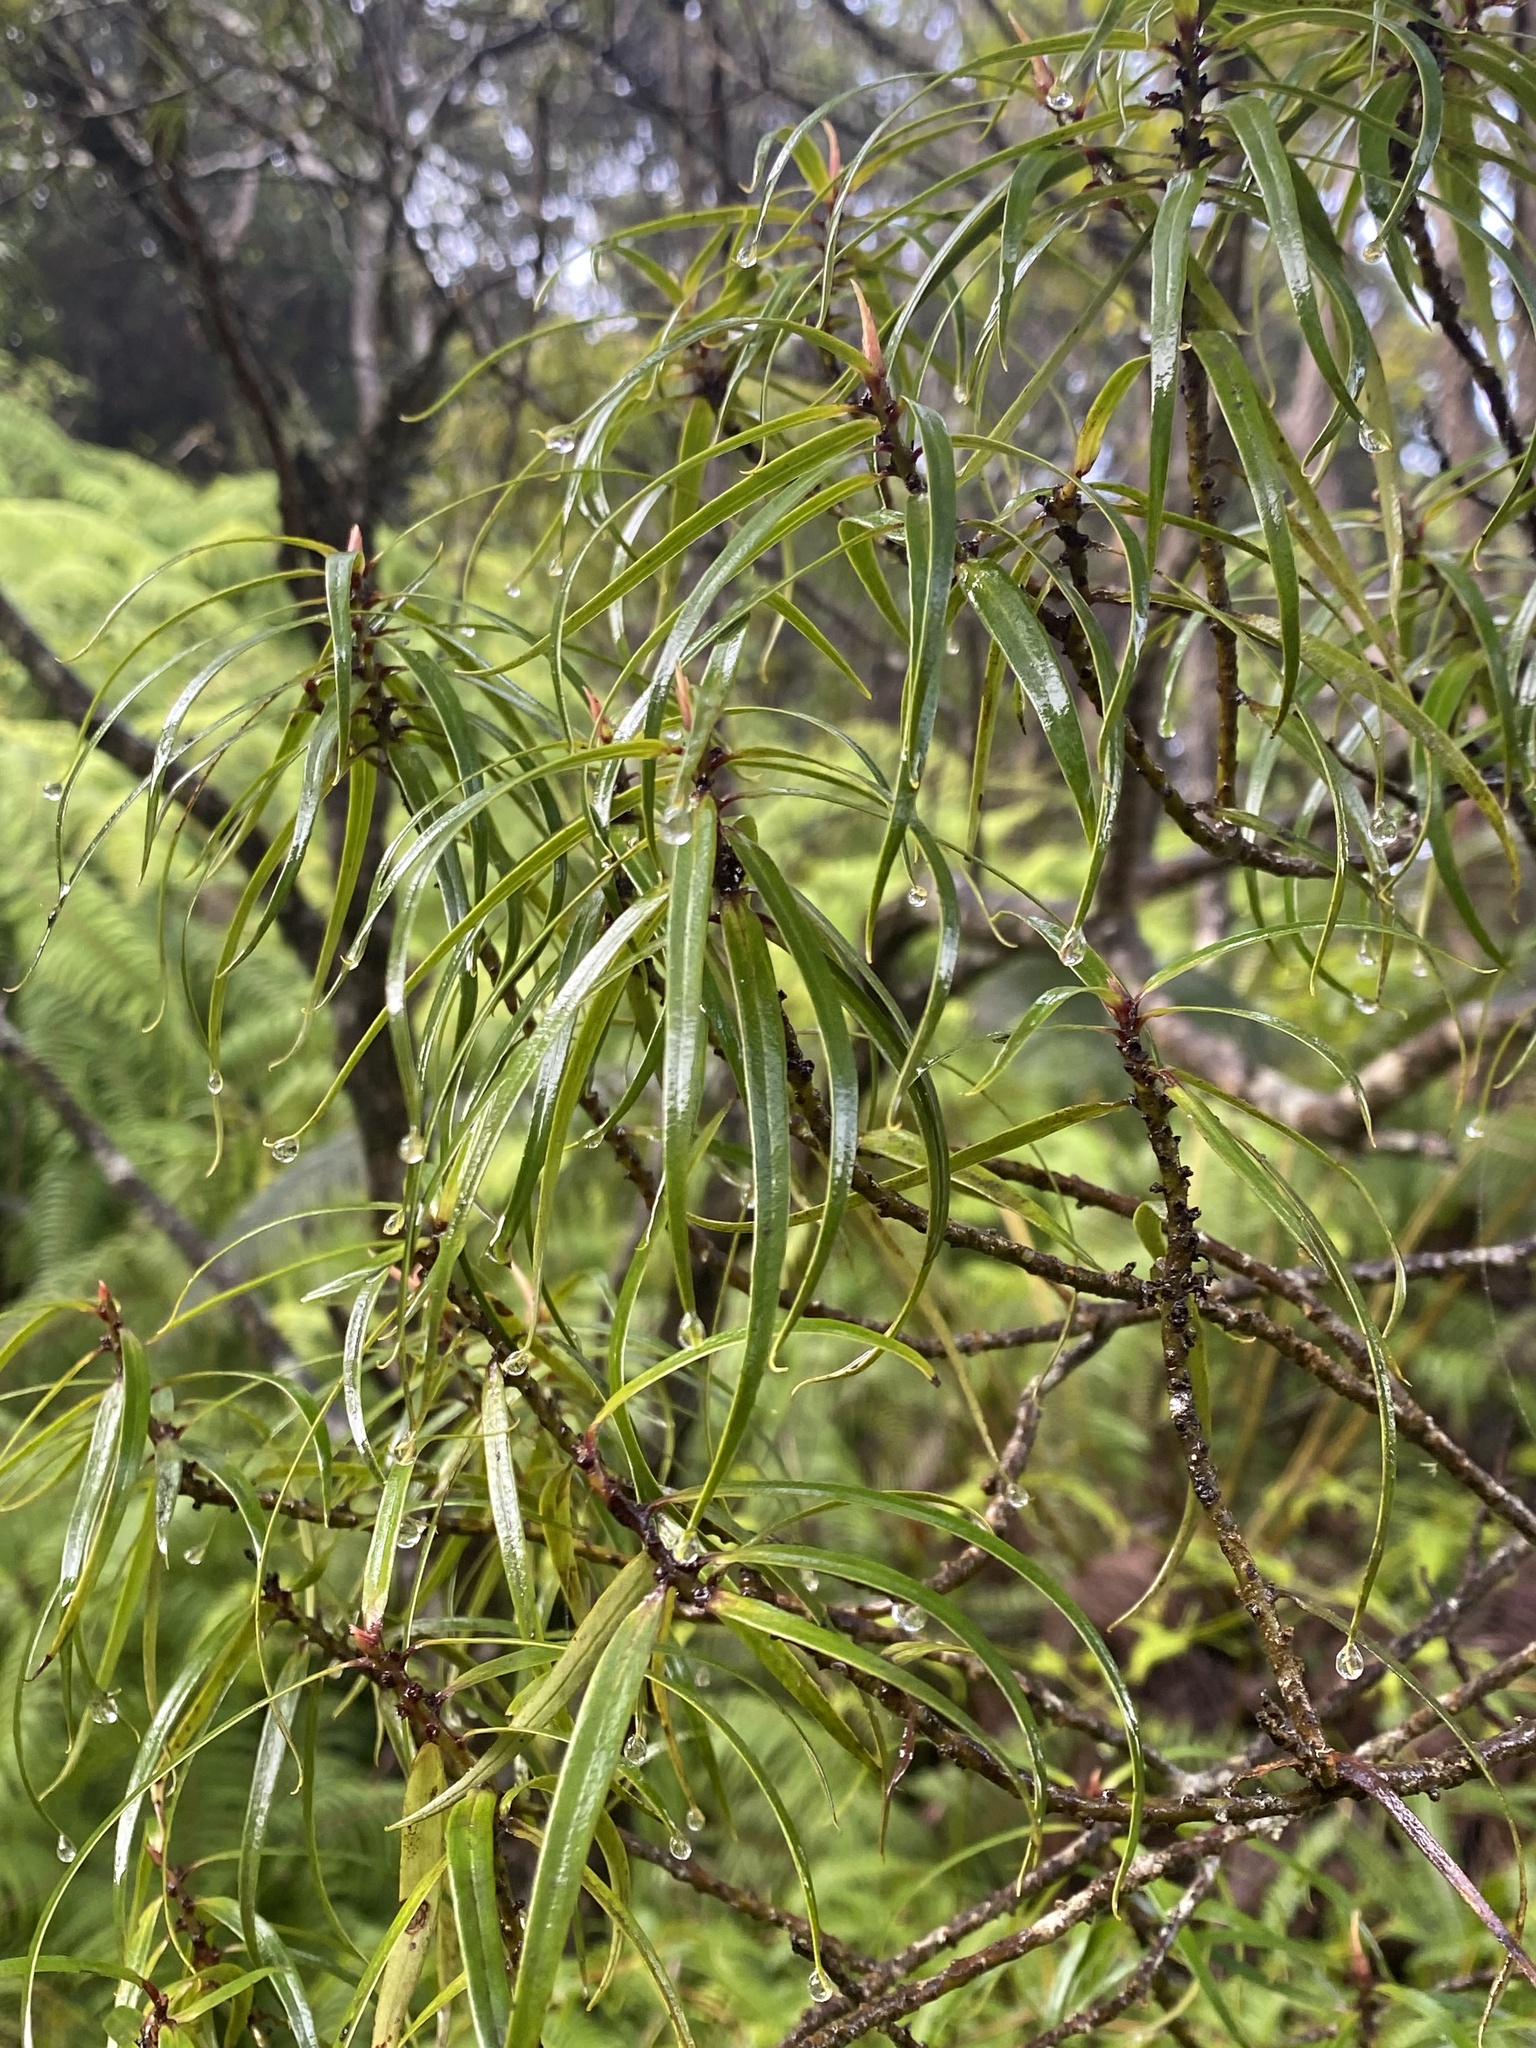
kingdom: Plantae
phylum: Tracheophyta
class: Magnoliopsida
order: Ericales
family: Primulaceae
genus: Myrsine
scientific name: Myrsine linearifolia
